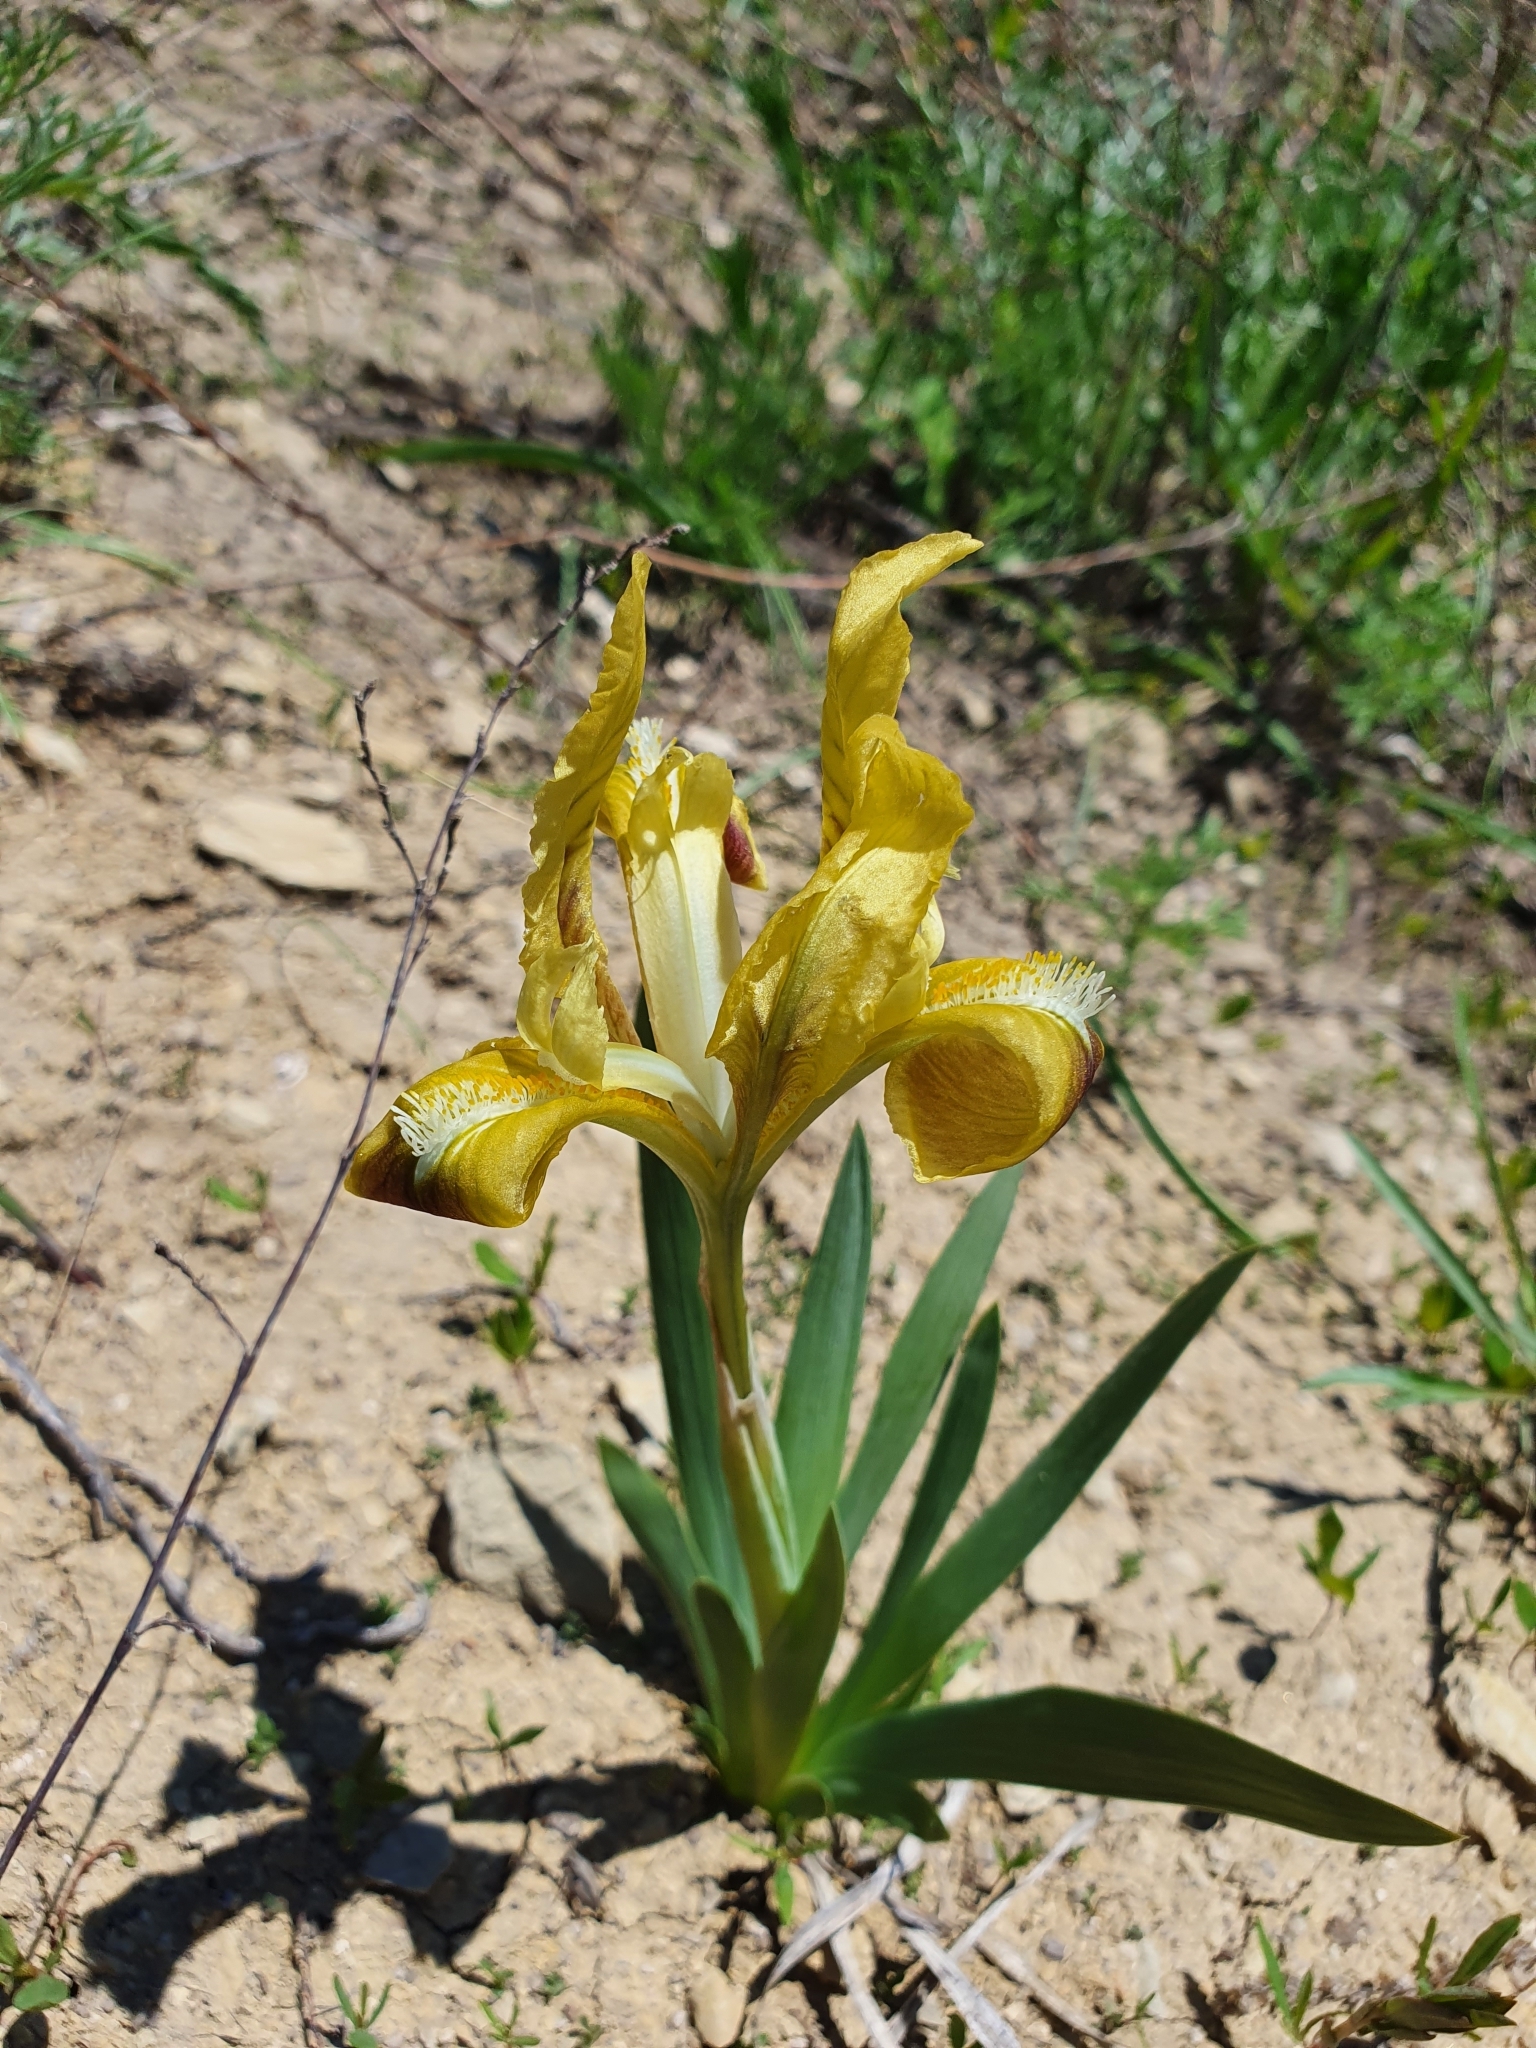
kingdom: Plantae
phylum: Tracheophyta
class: Liliopsida
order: Asparagales
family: Iridaceae
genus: Iris
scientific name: Iris pumila
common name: Dwarf iris
